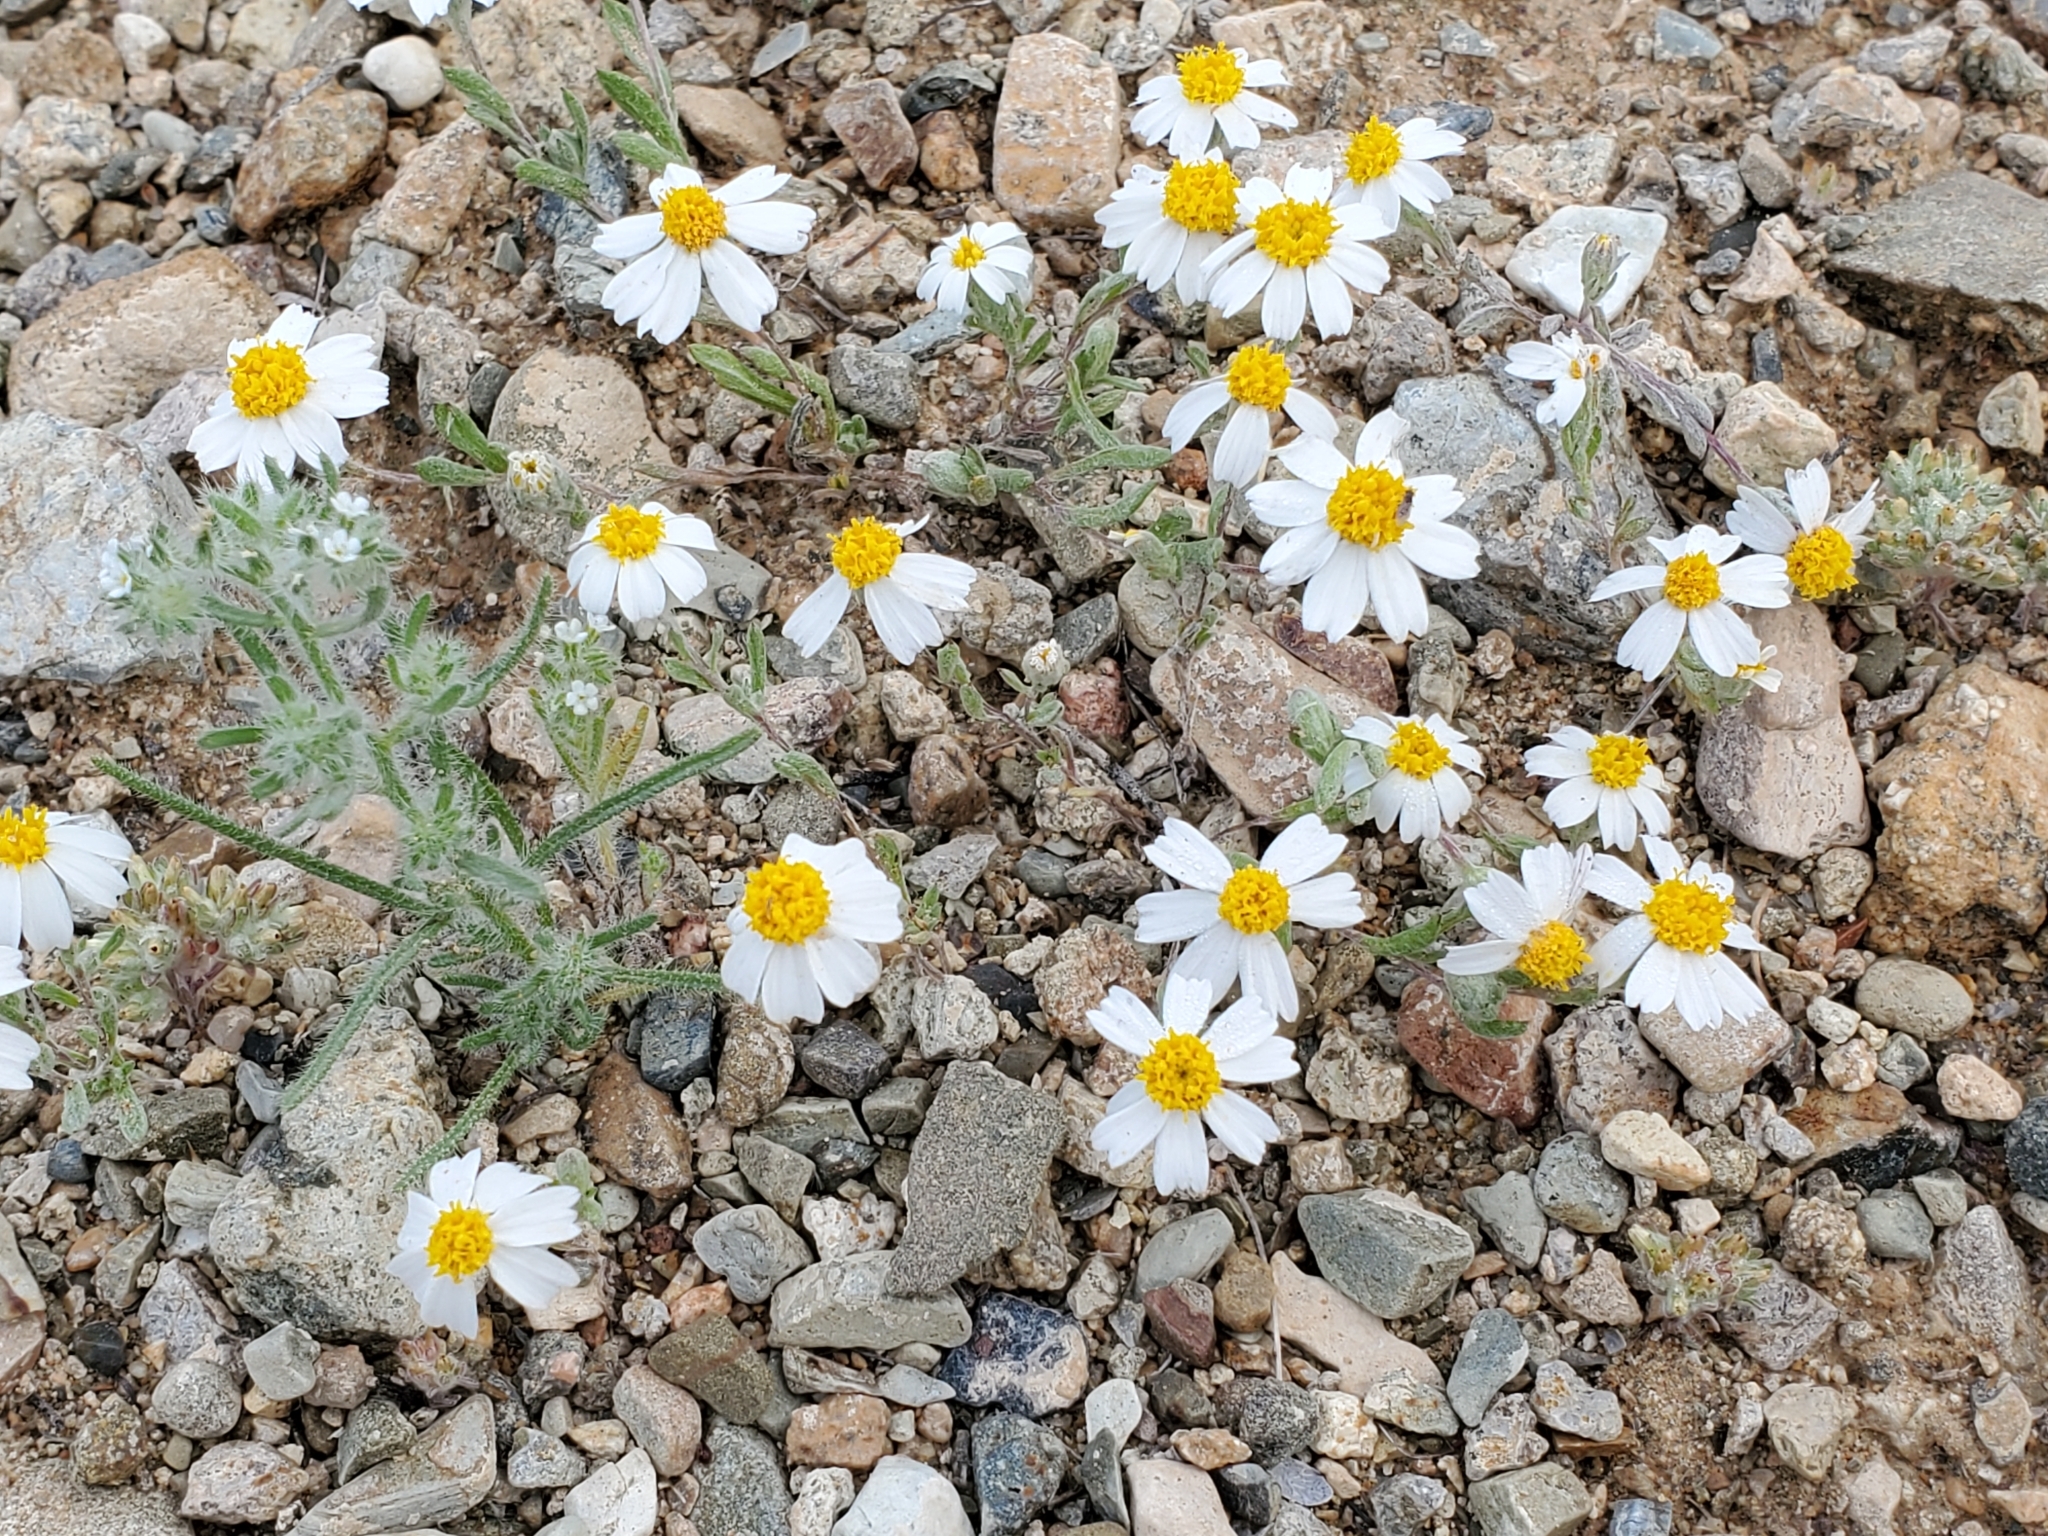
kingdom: Plantae
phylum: Tracheophyta
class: Magnoliopsida
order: Asterales
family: Asteraceae
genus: Eriophyllum
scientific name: Eriophyllum lanosum
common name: White easter-bonnets
